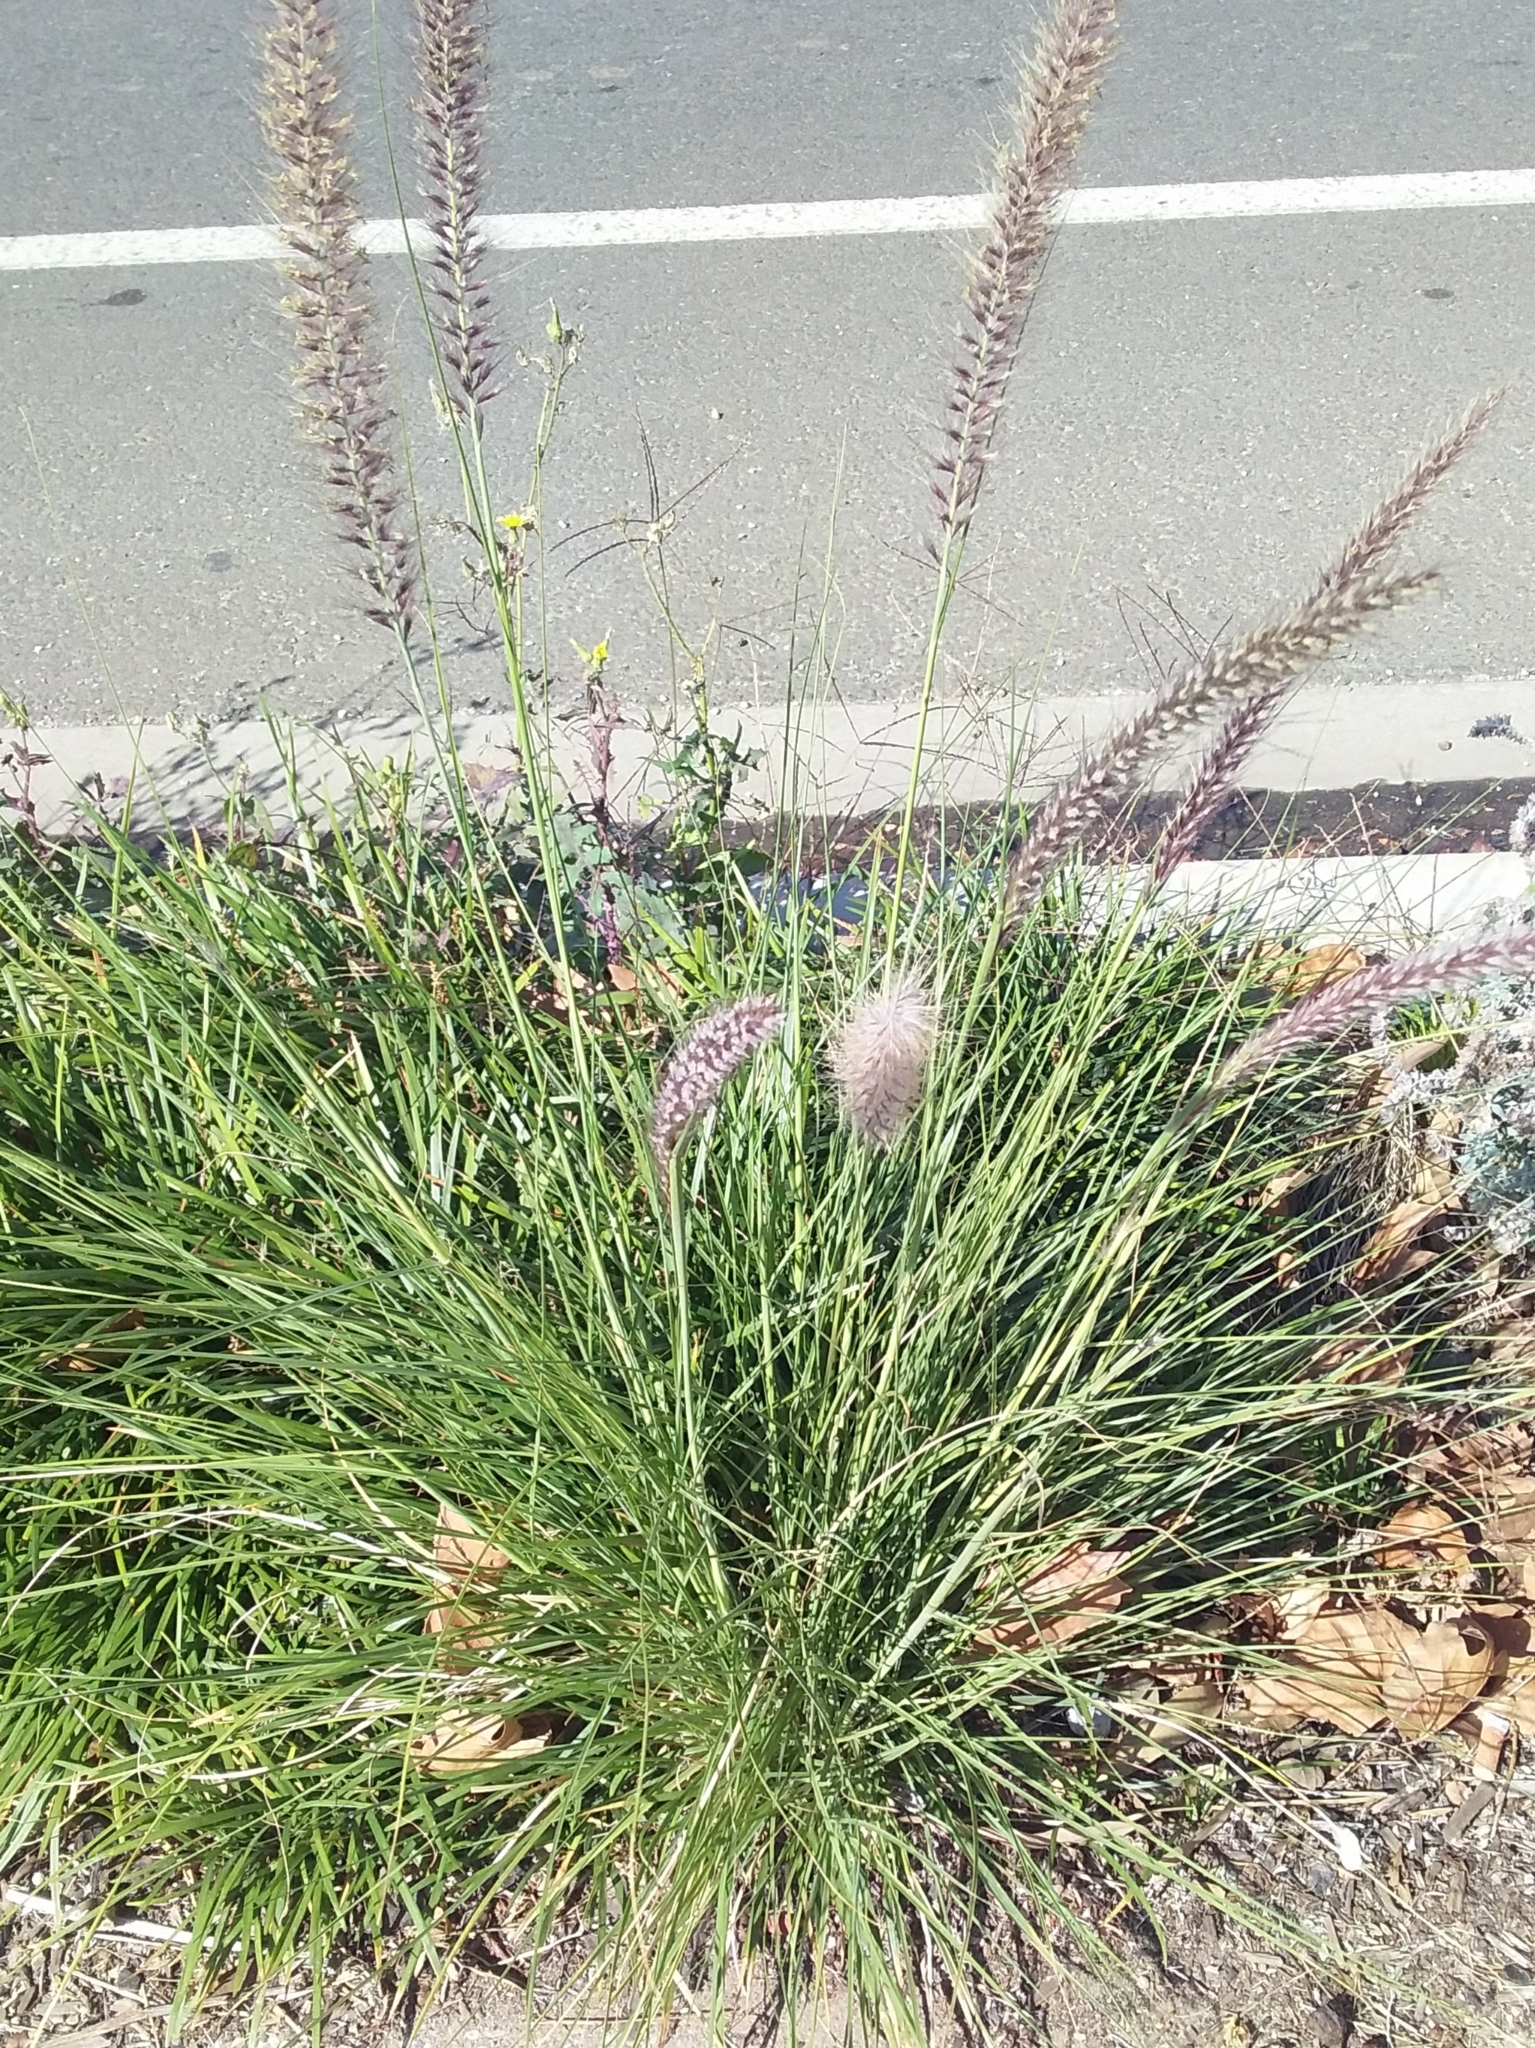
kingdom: Plantae
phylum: Tracheophyta
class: Liliopsida
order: Poales
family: Poaceae
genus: Cenchrus
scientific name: Cenchrus setaceus
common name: Crimson fountaingrass
